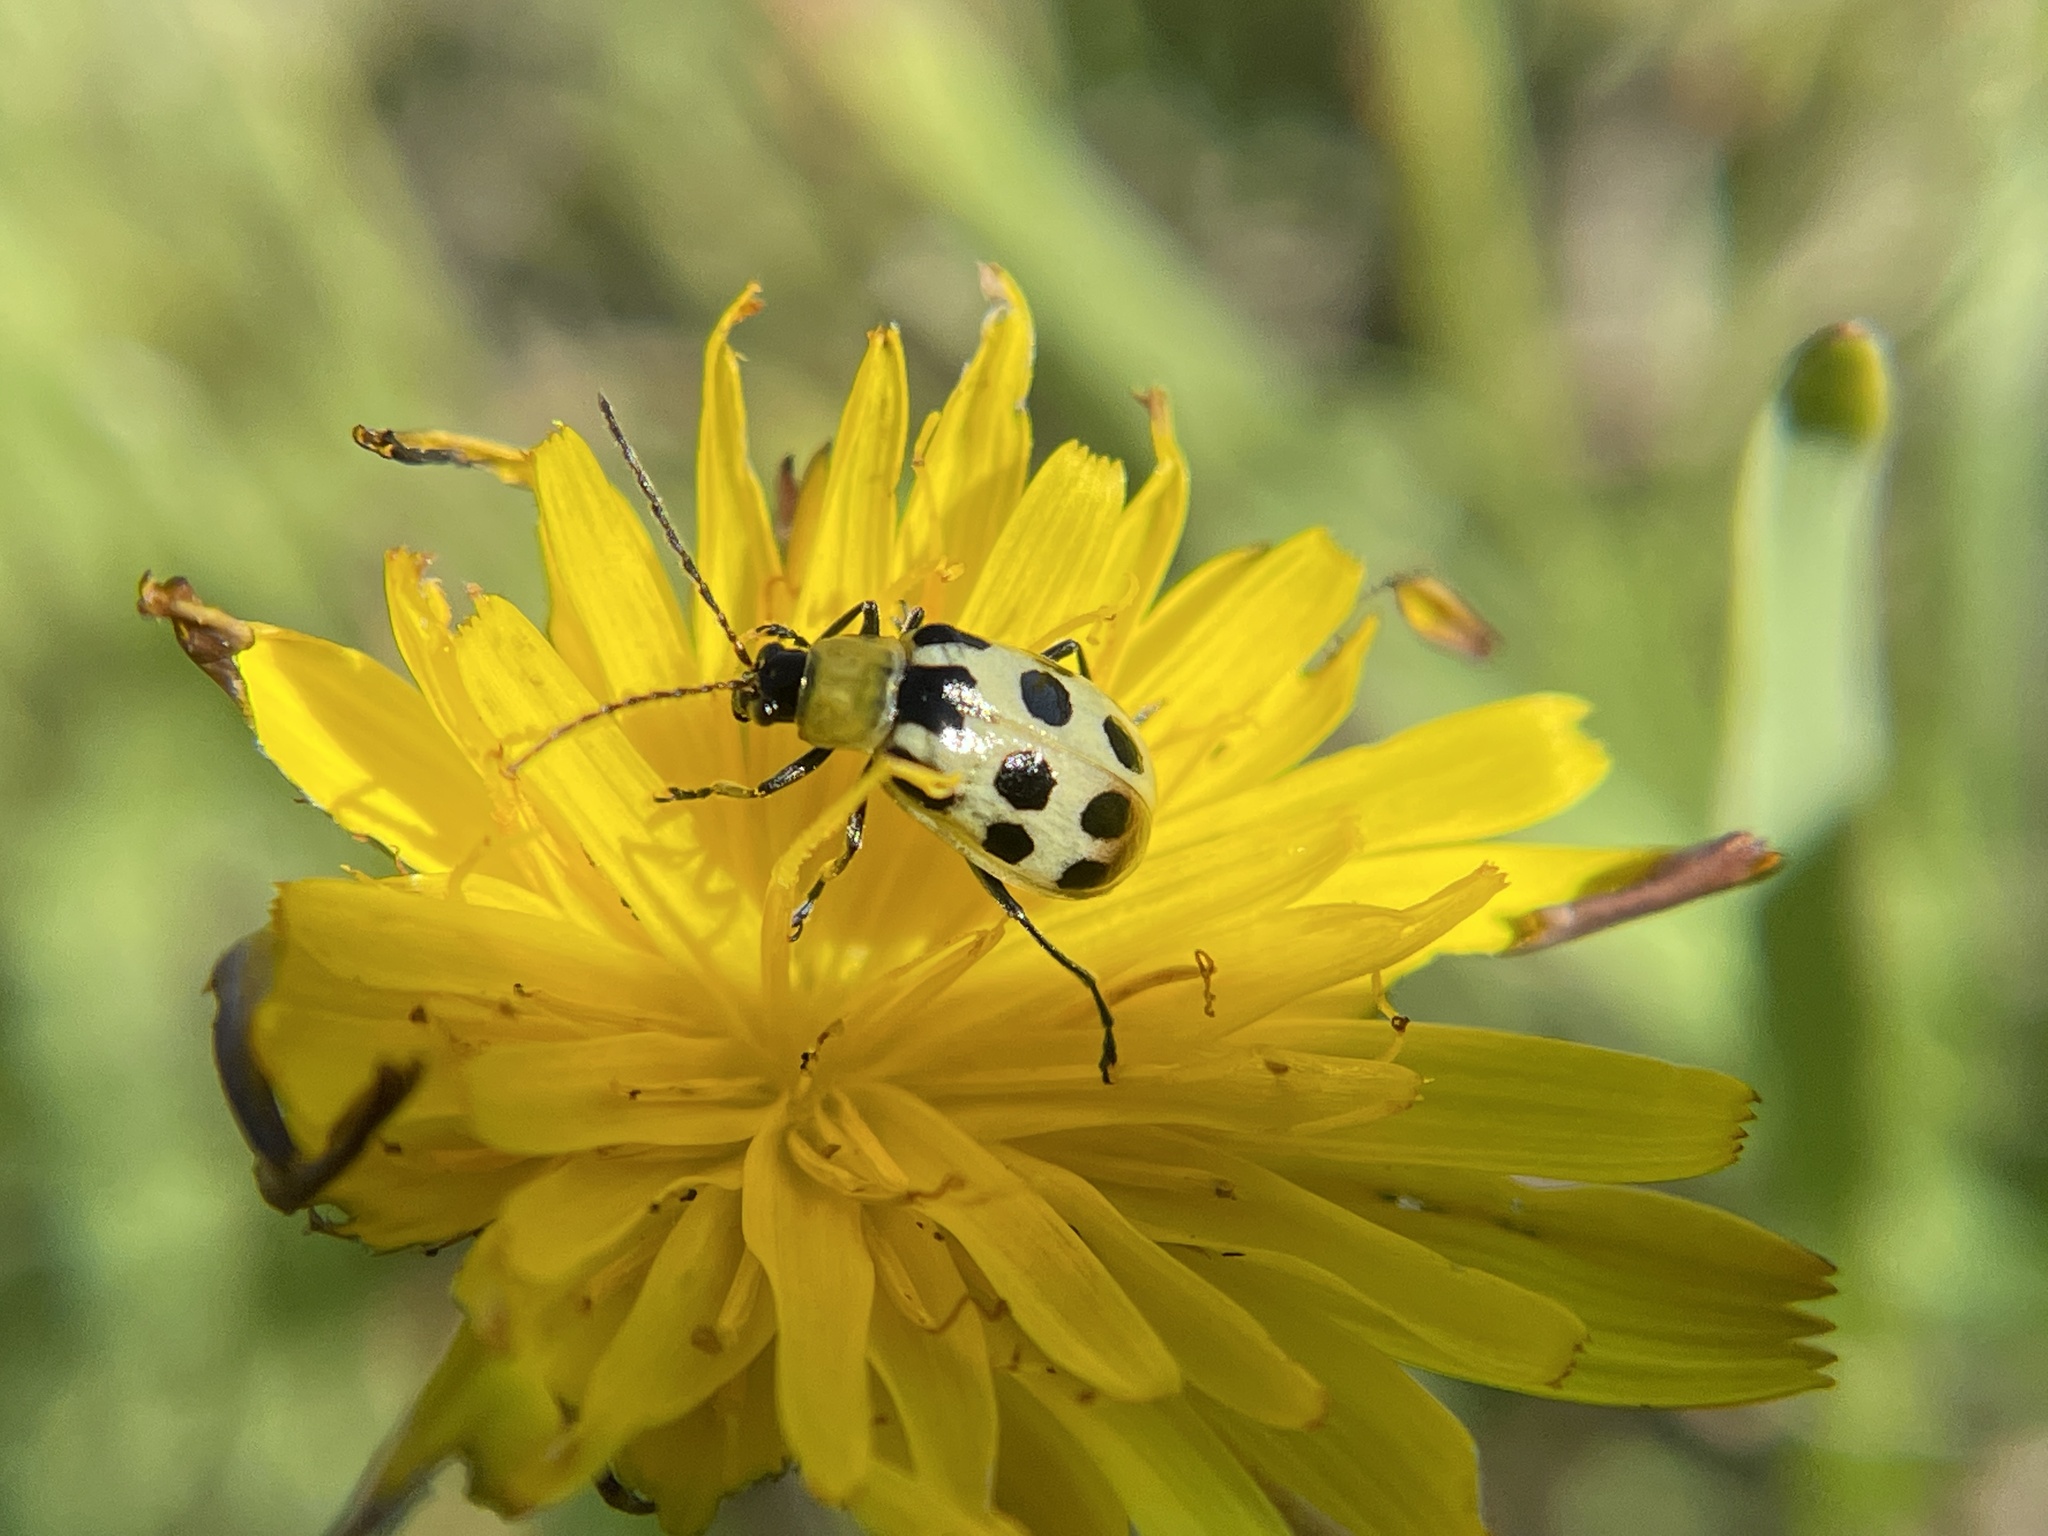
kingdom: Animalia
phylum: Arthropoda
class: Insecta
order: Coleoptera
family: Chrysomelidae
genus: Diabrotica
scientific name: Diabrotica undecimpunctata
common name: Spotted cucumber beetle
